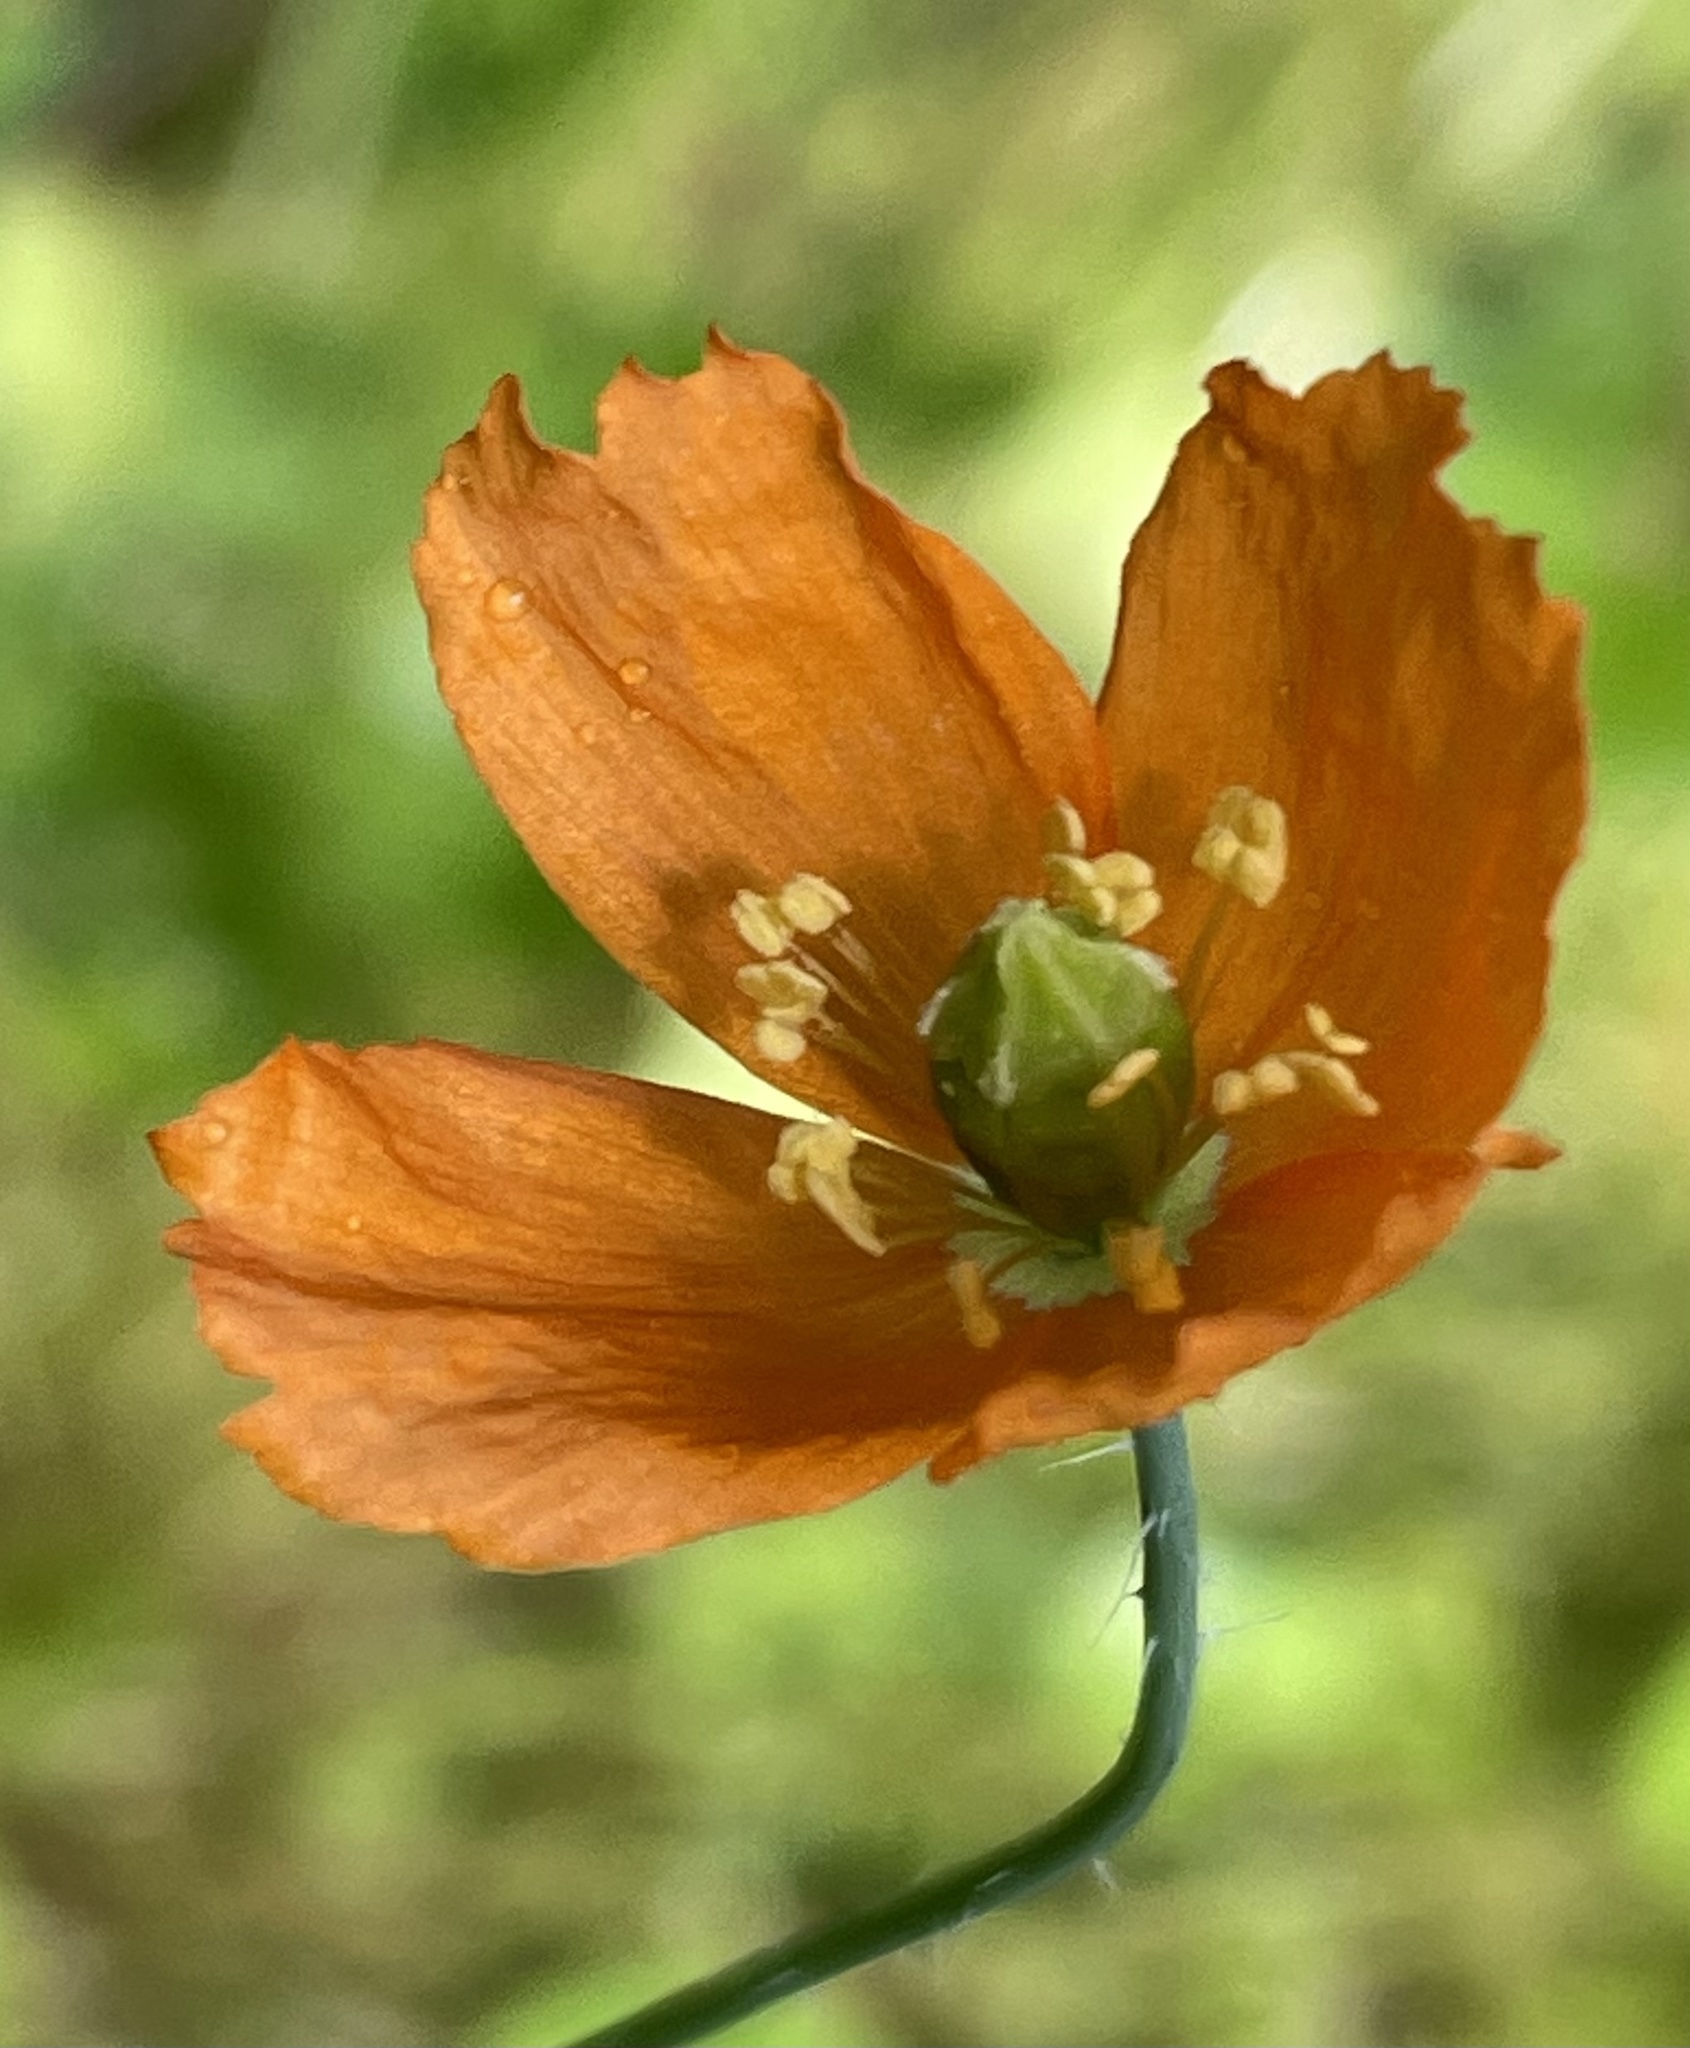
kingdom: Plantae
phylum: Tracheophyta
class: Magnoliopsida
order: Ranunculales
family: Papaveraceae
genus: Papaver
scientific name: Papaver californicum
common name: Fire poppy
